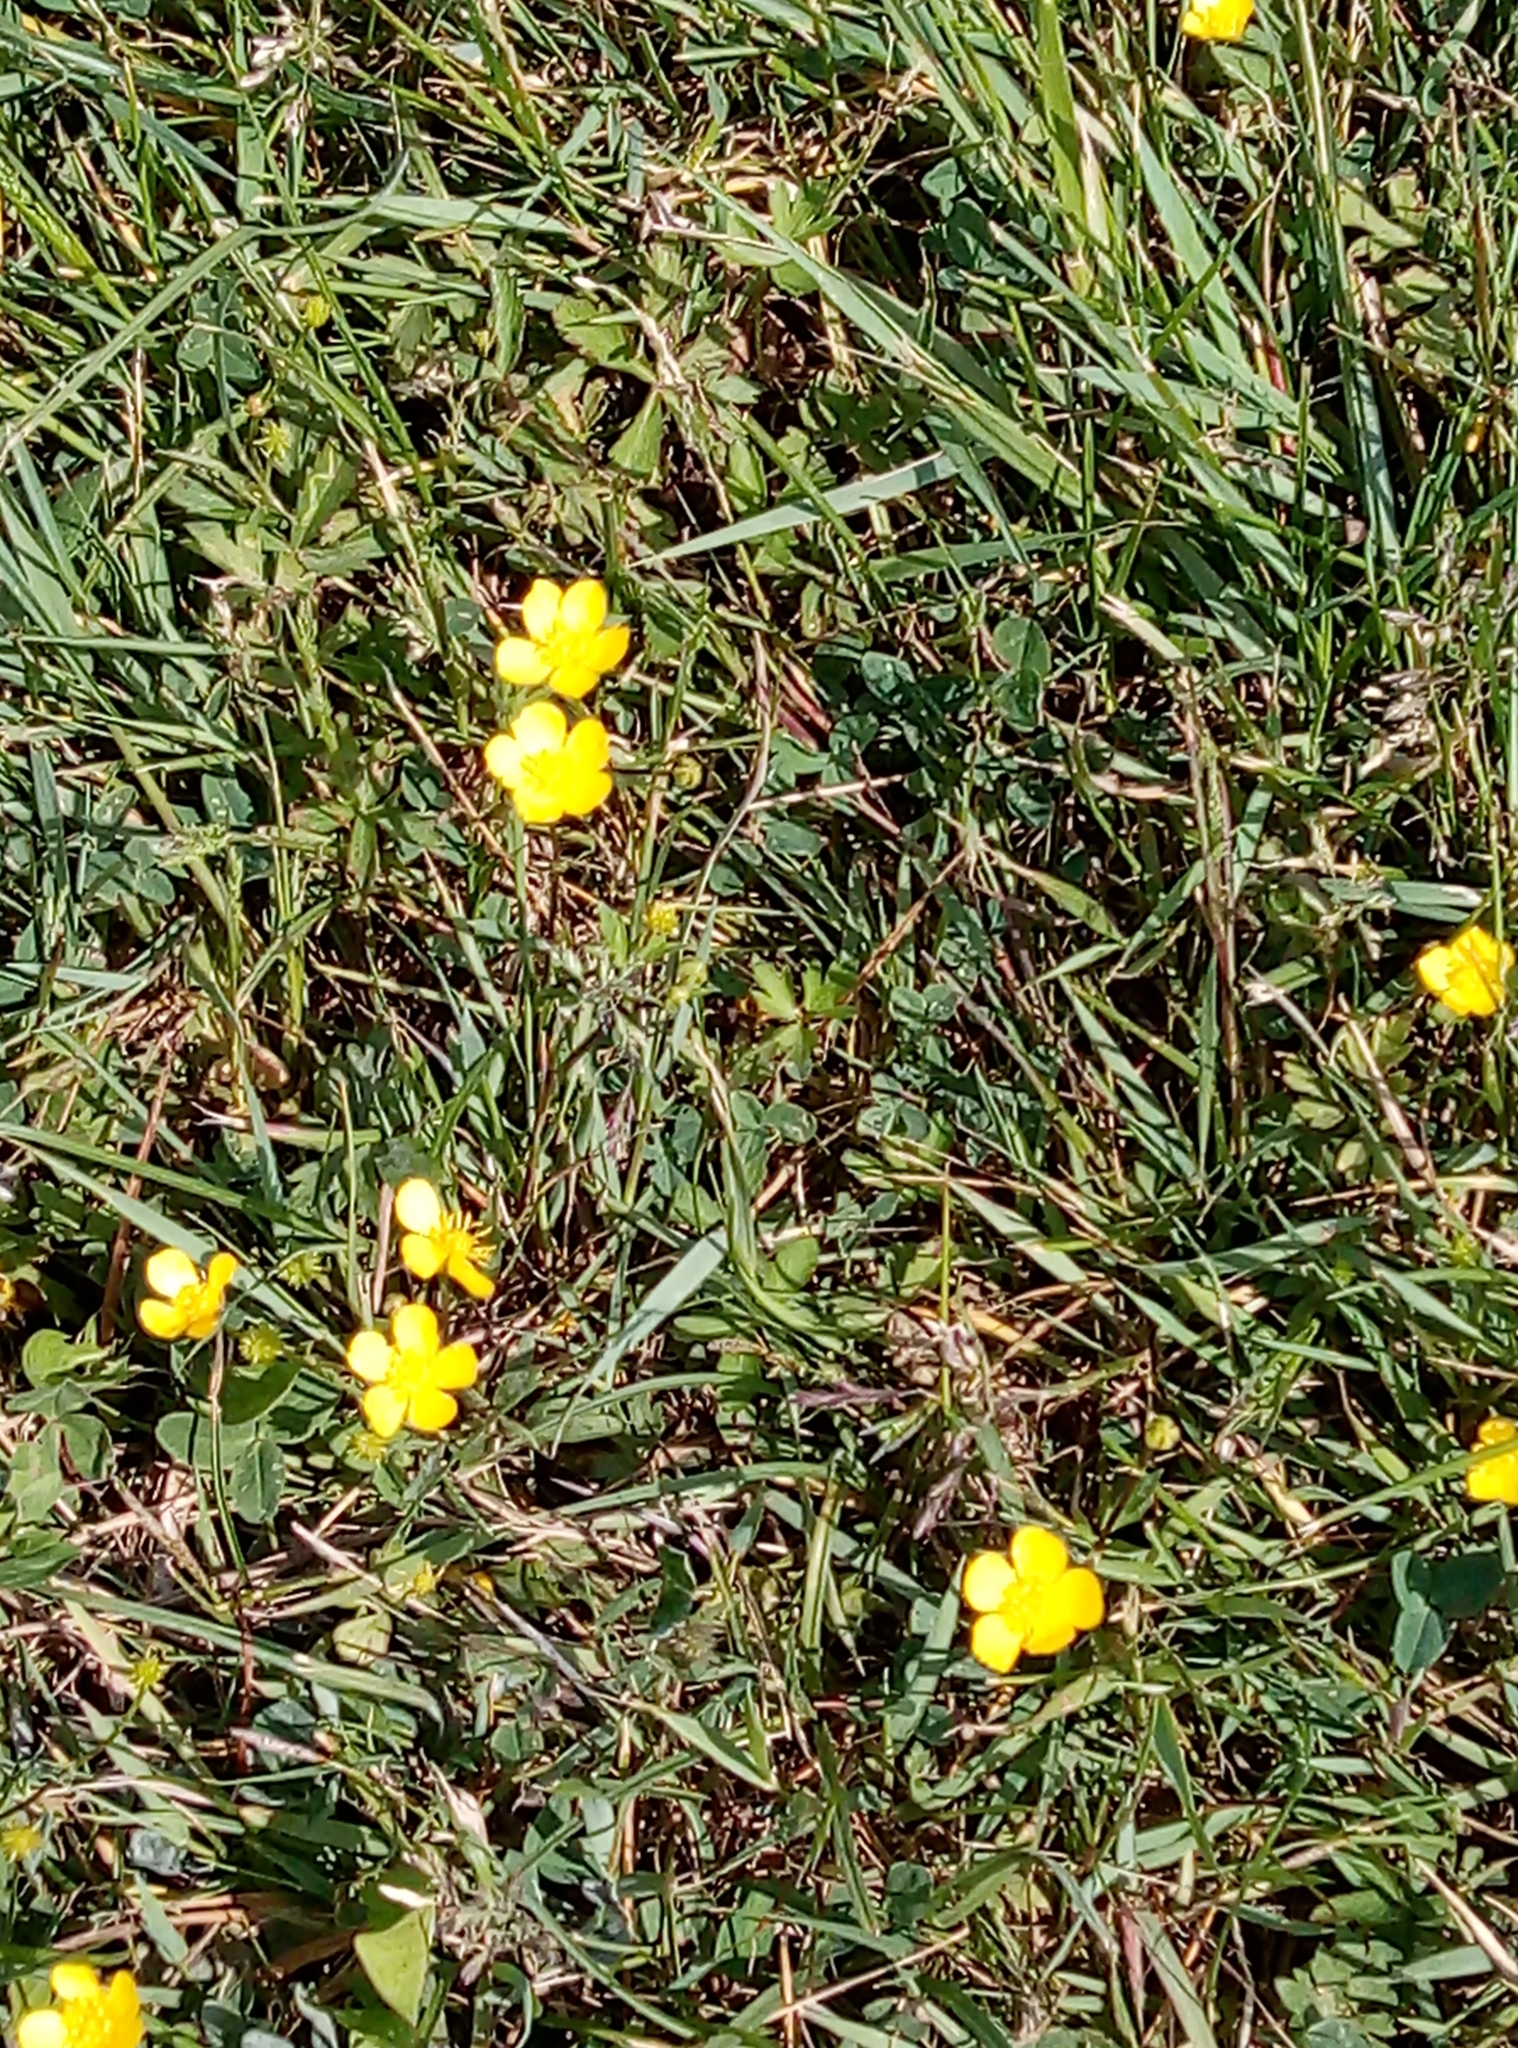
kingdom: Plantae
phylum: Tracheophyta
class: Magnoliopsida
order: Ranunculales
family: Ranunculaceae
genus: Ranunculus
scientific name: Ranunculus repens
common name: Creeping buttercup
